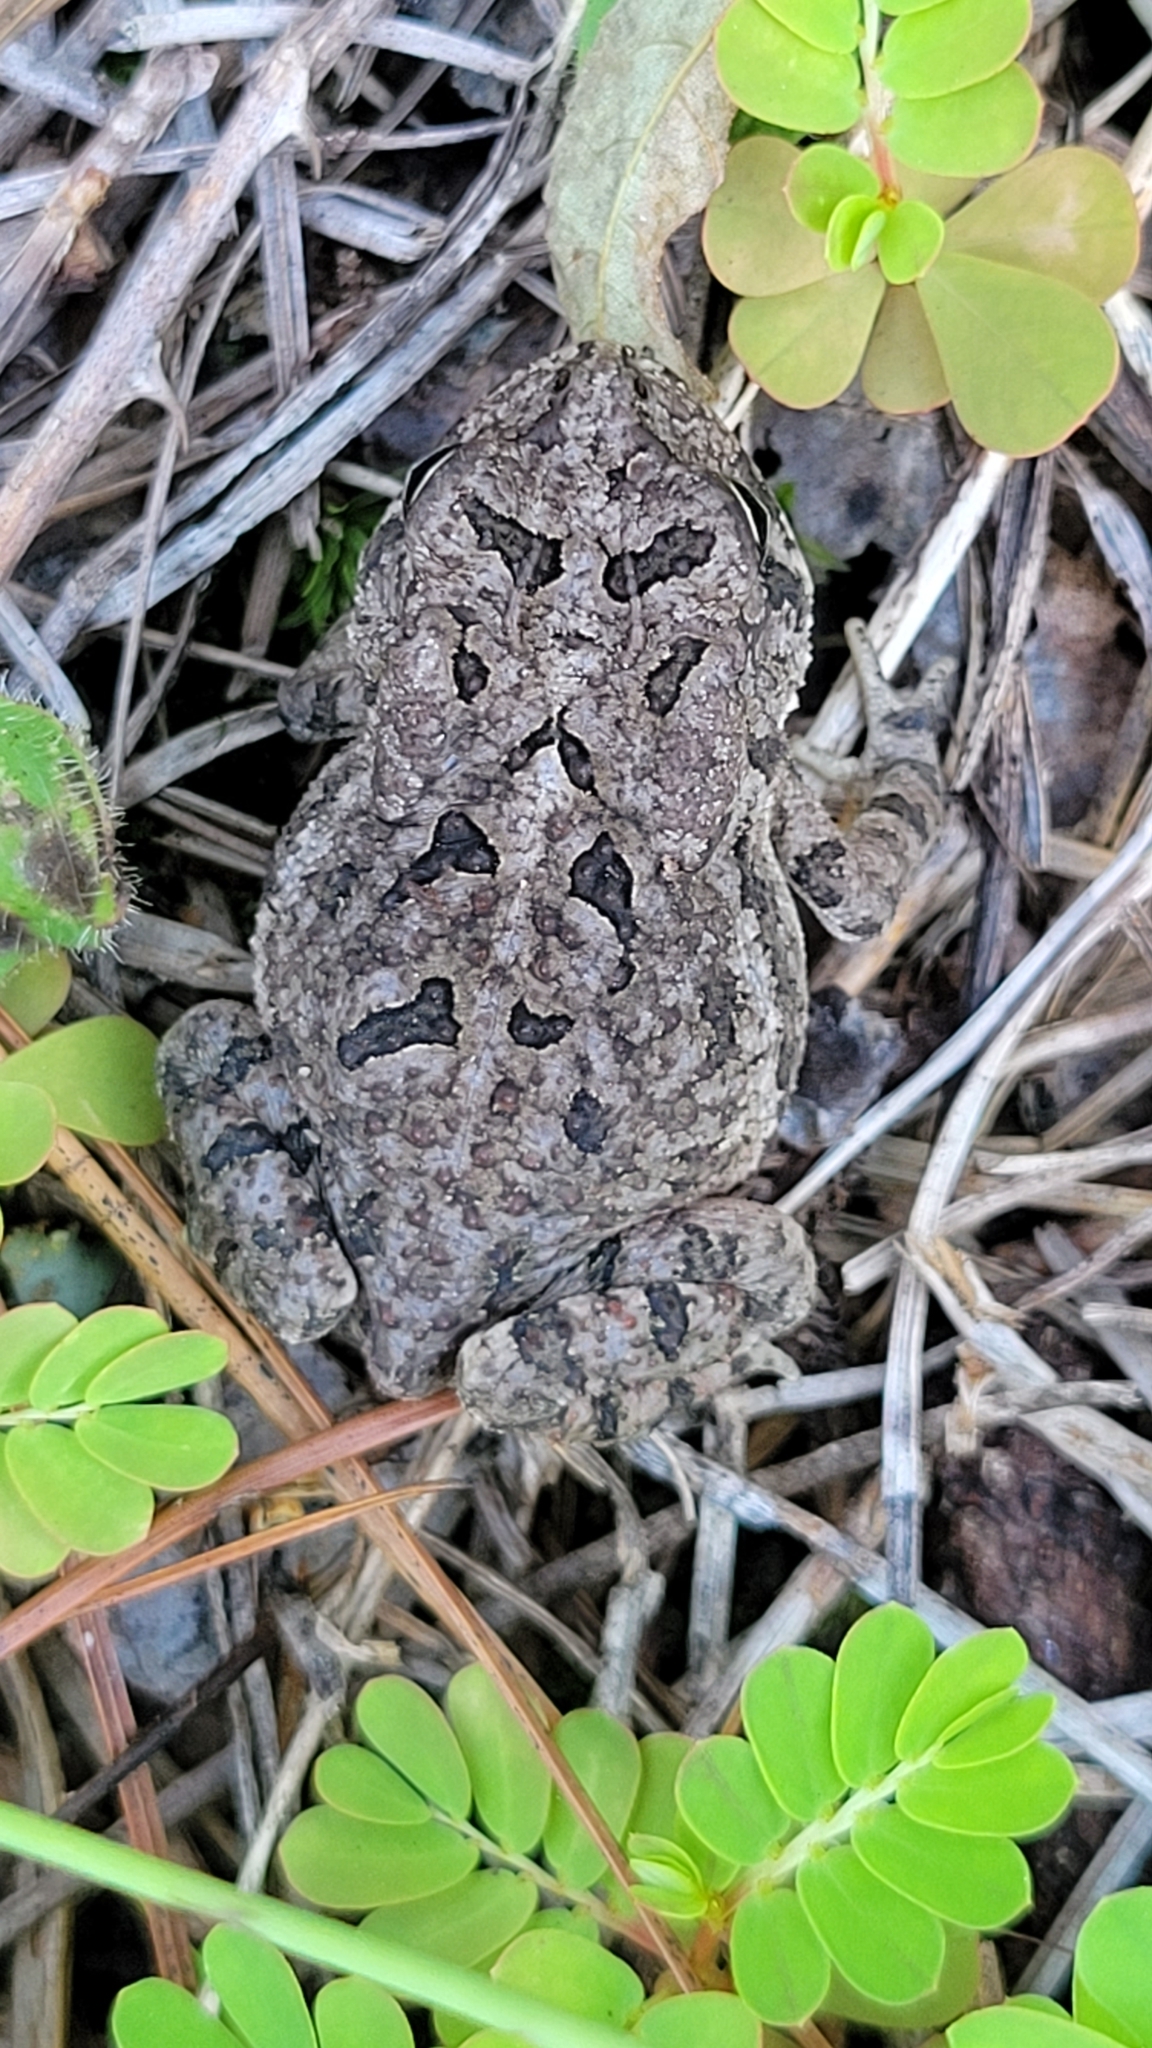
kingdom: Animalia
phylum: Chordata
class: Amphibia
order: Anura
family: Bufonidae
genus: Anaxyrus
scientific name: Anaxyrus terrestris
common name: Southern toad
